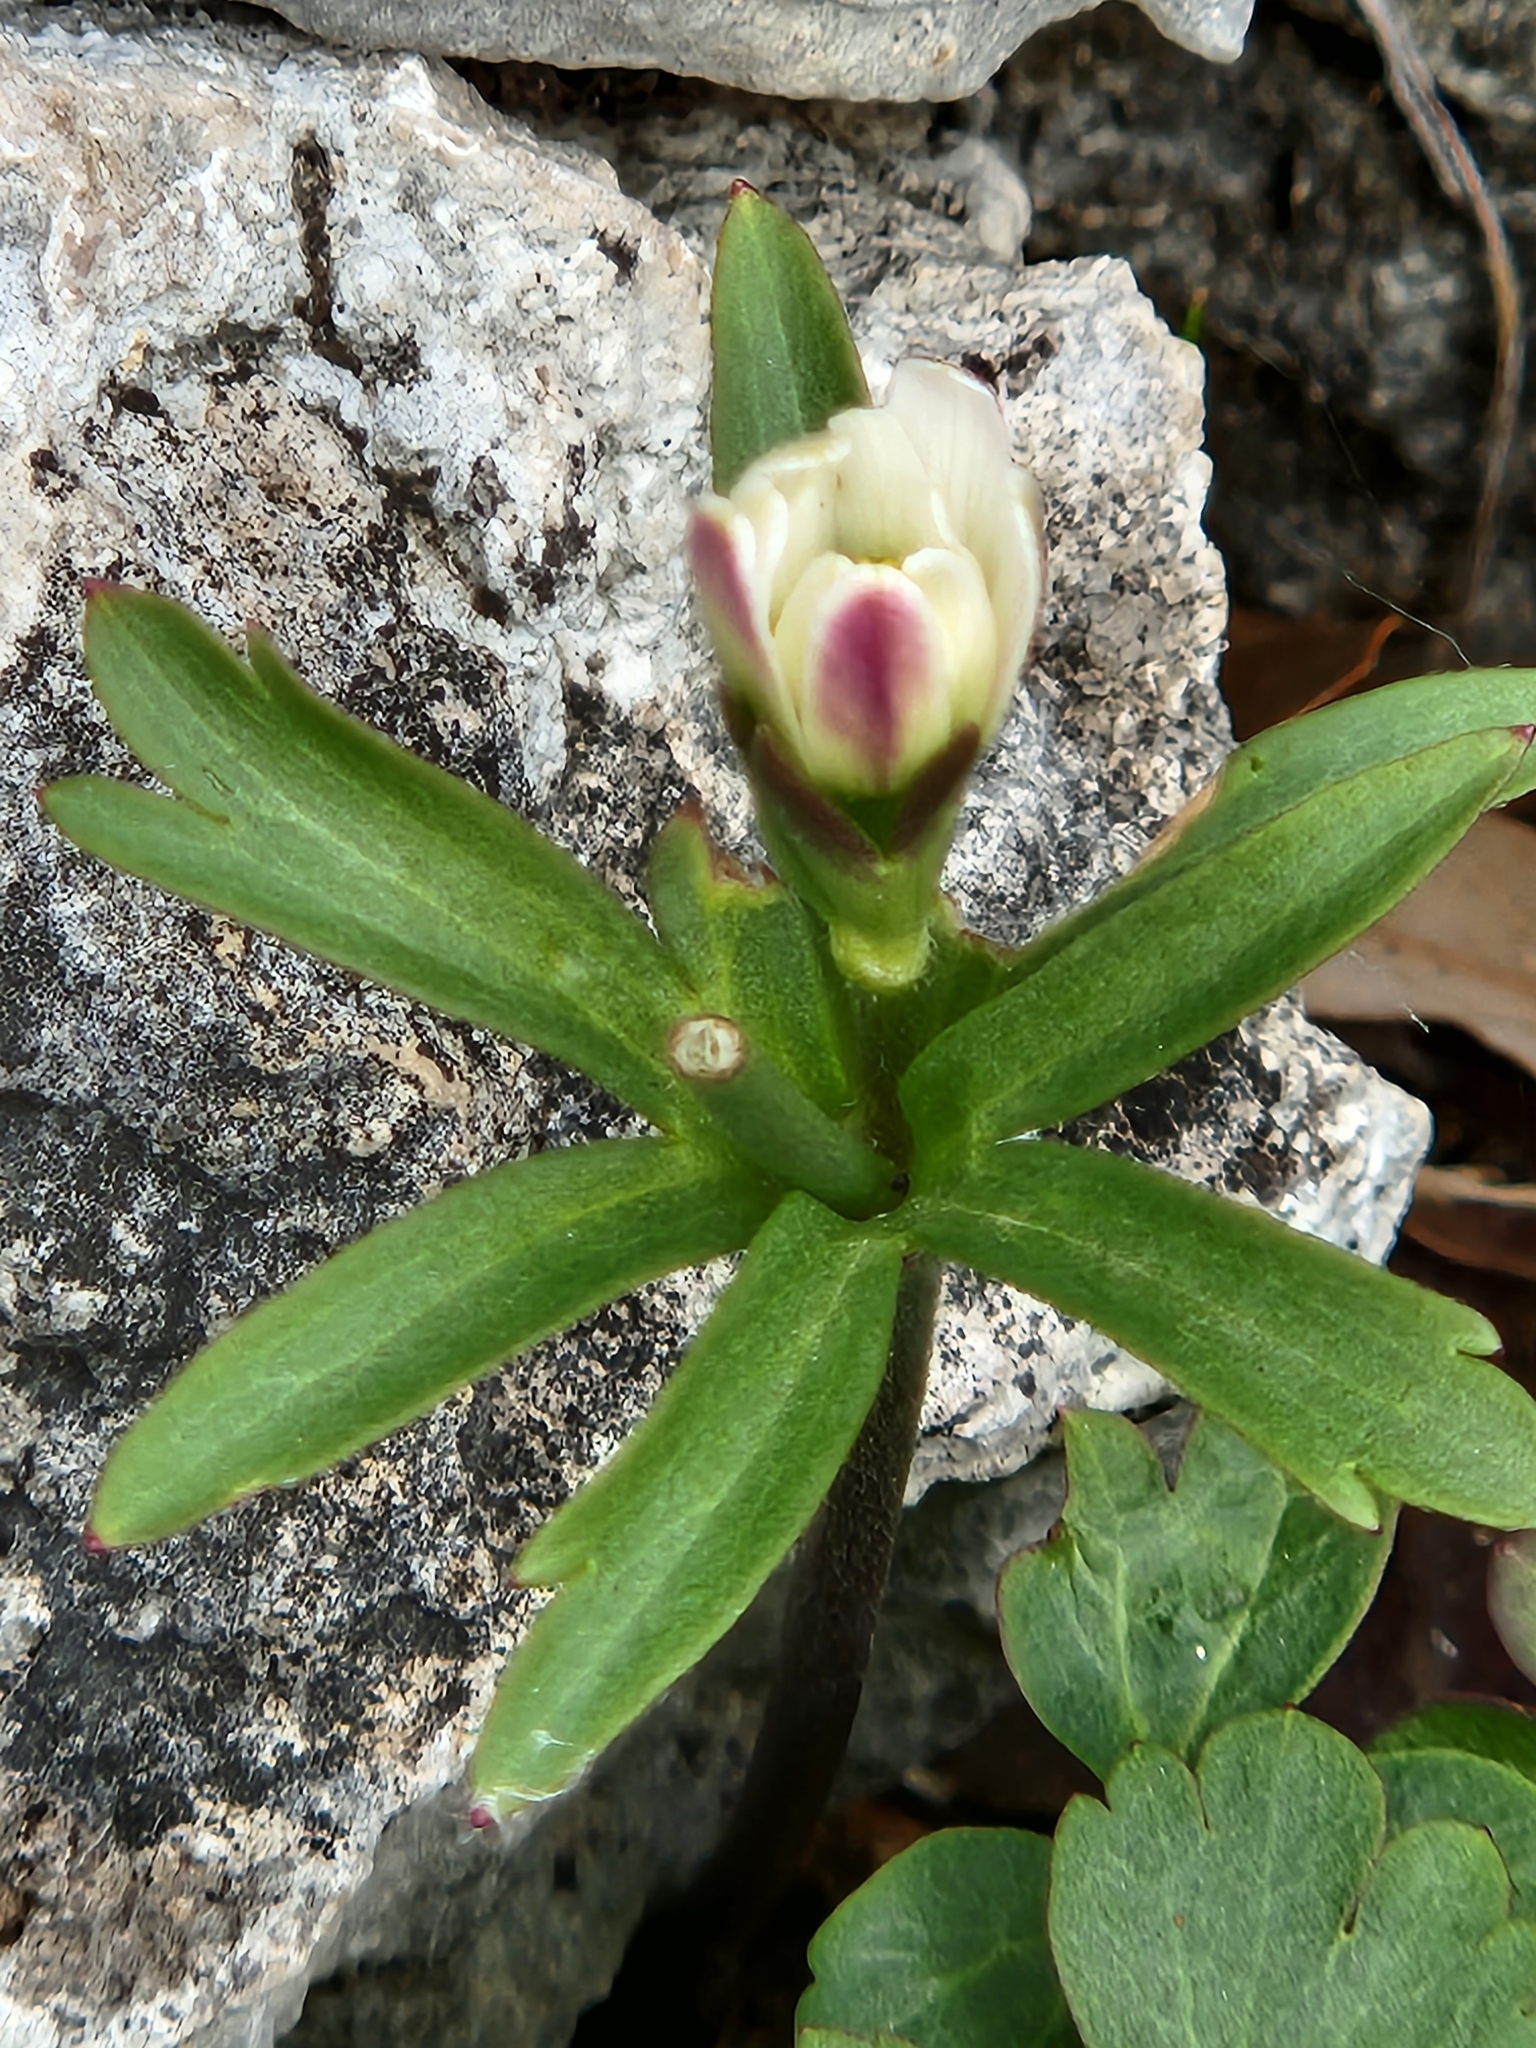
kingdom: Plantae
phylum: Tracheophyta
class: Magnoliopsida
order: Ranunculales
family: Ranunculaceae
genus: Anemone
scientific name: Anemone edwardsiana
